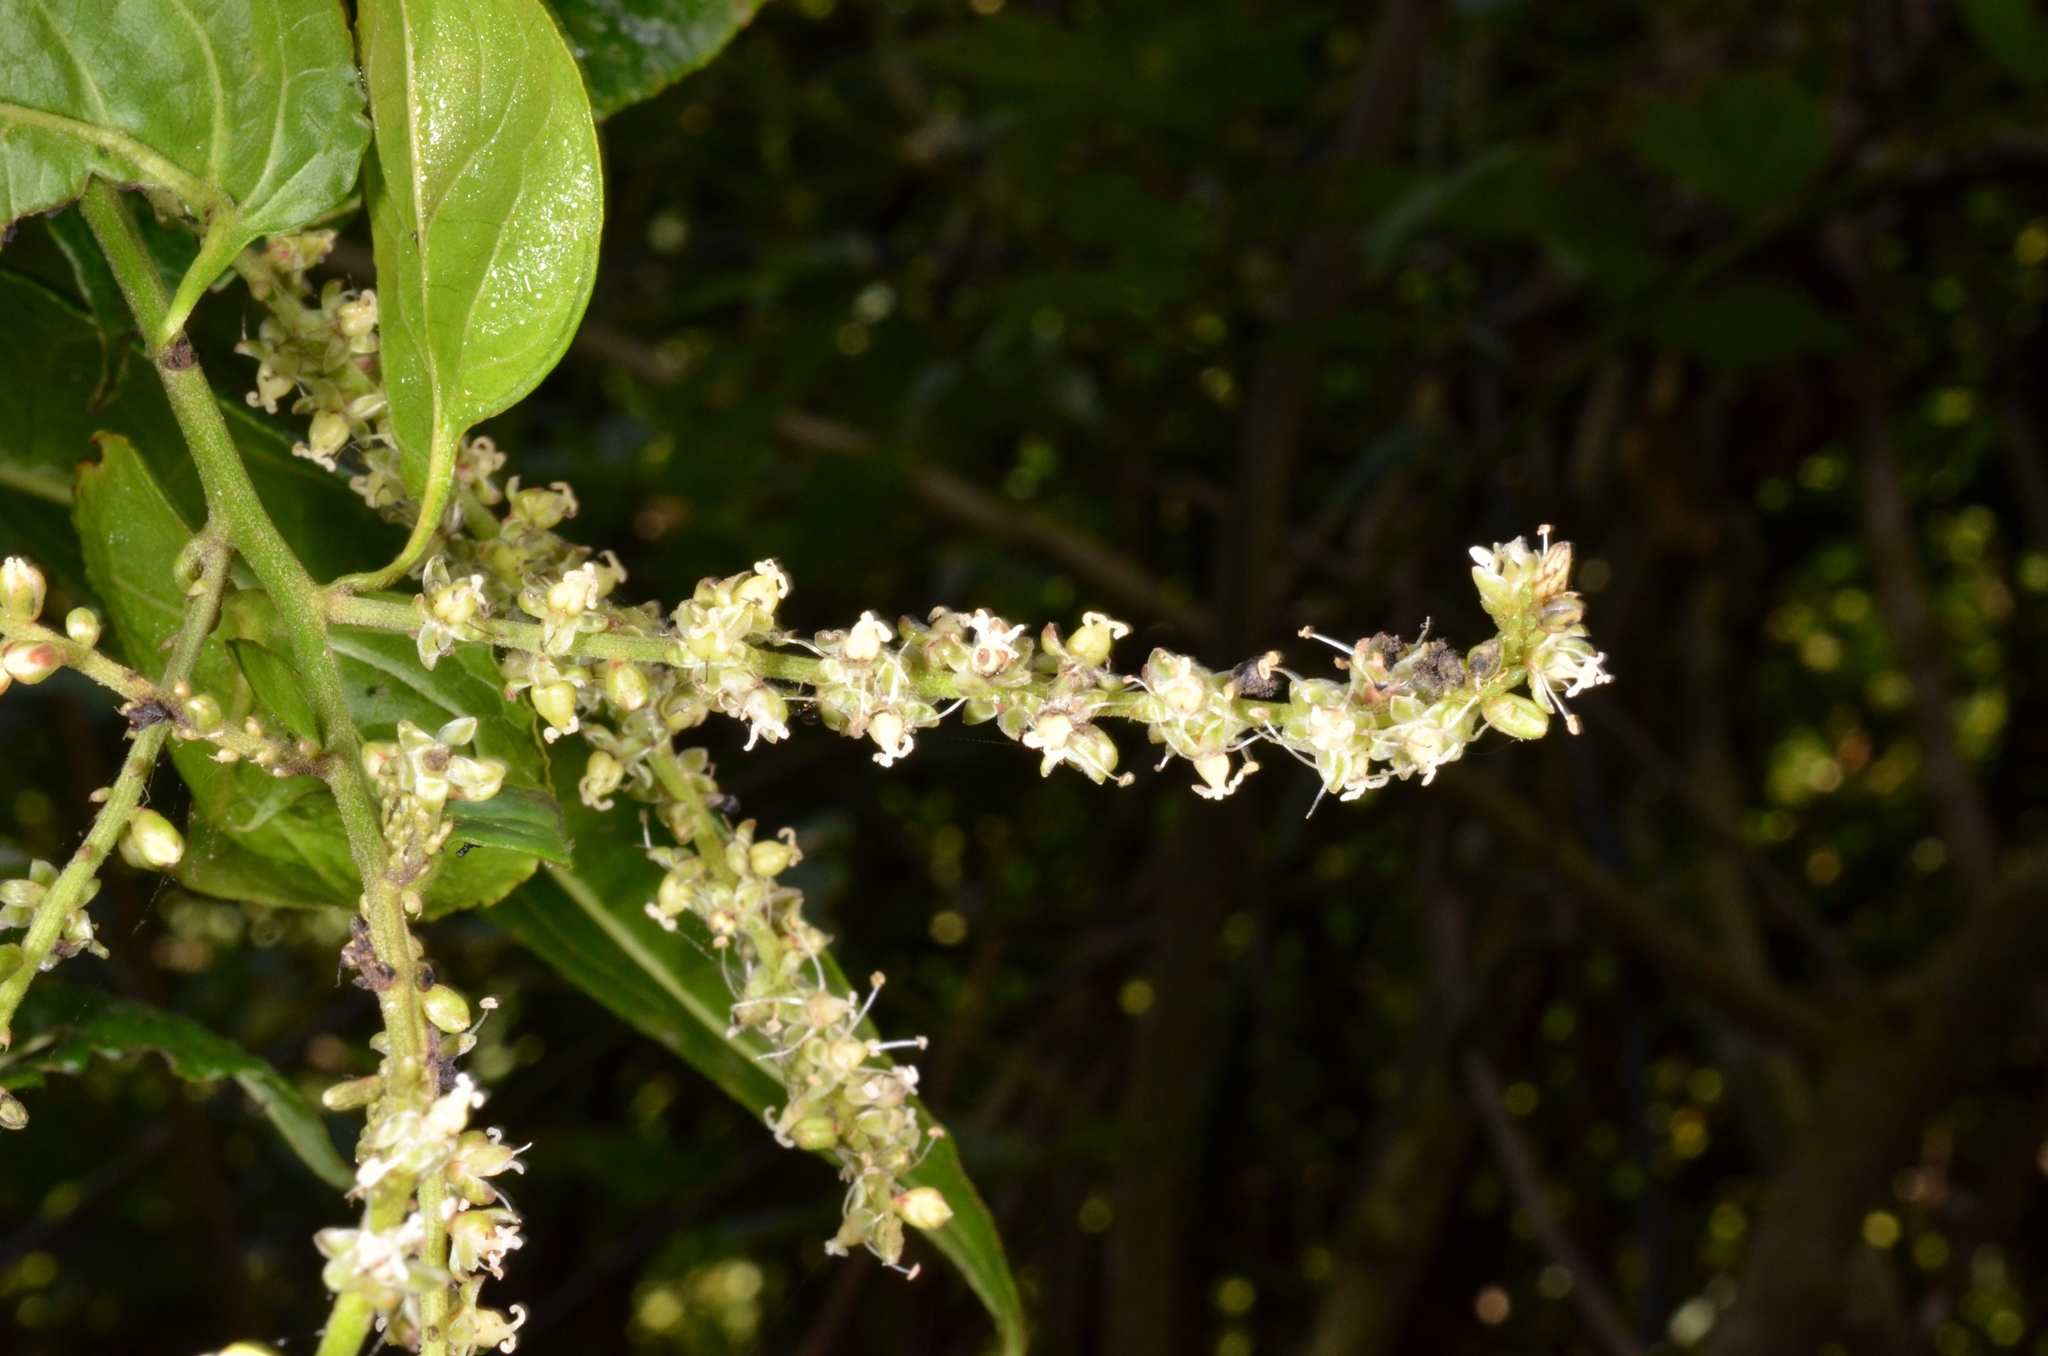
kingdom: Plantae
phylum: Tracheophyta
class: Magnoliopsida
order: Caryophyllales
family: Amaranthaceae
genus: Deeringia
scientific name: Deeringia amaranthoides
